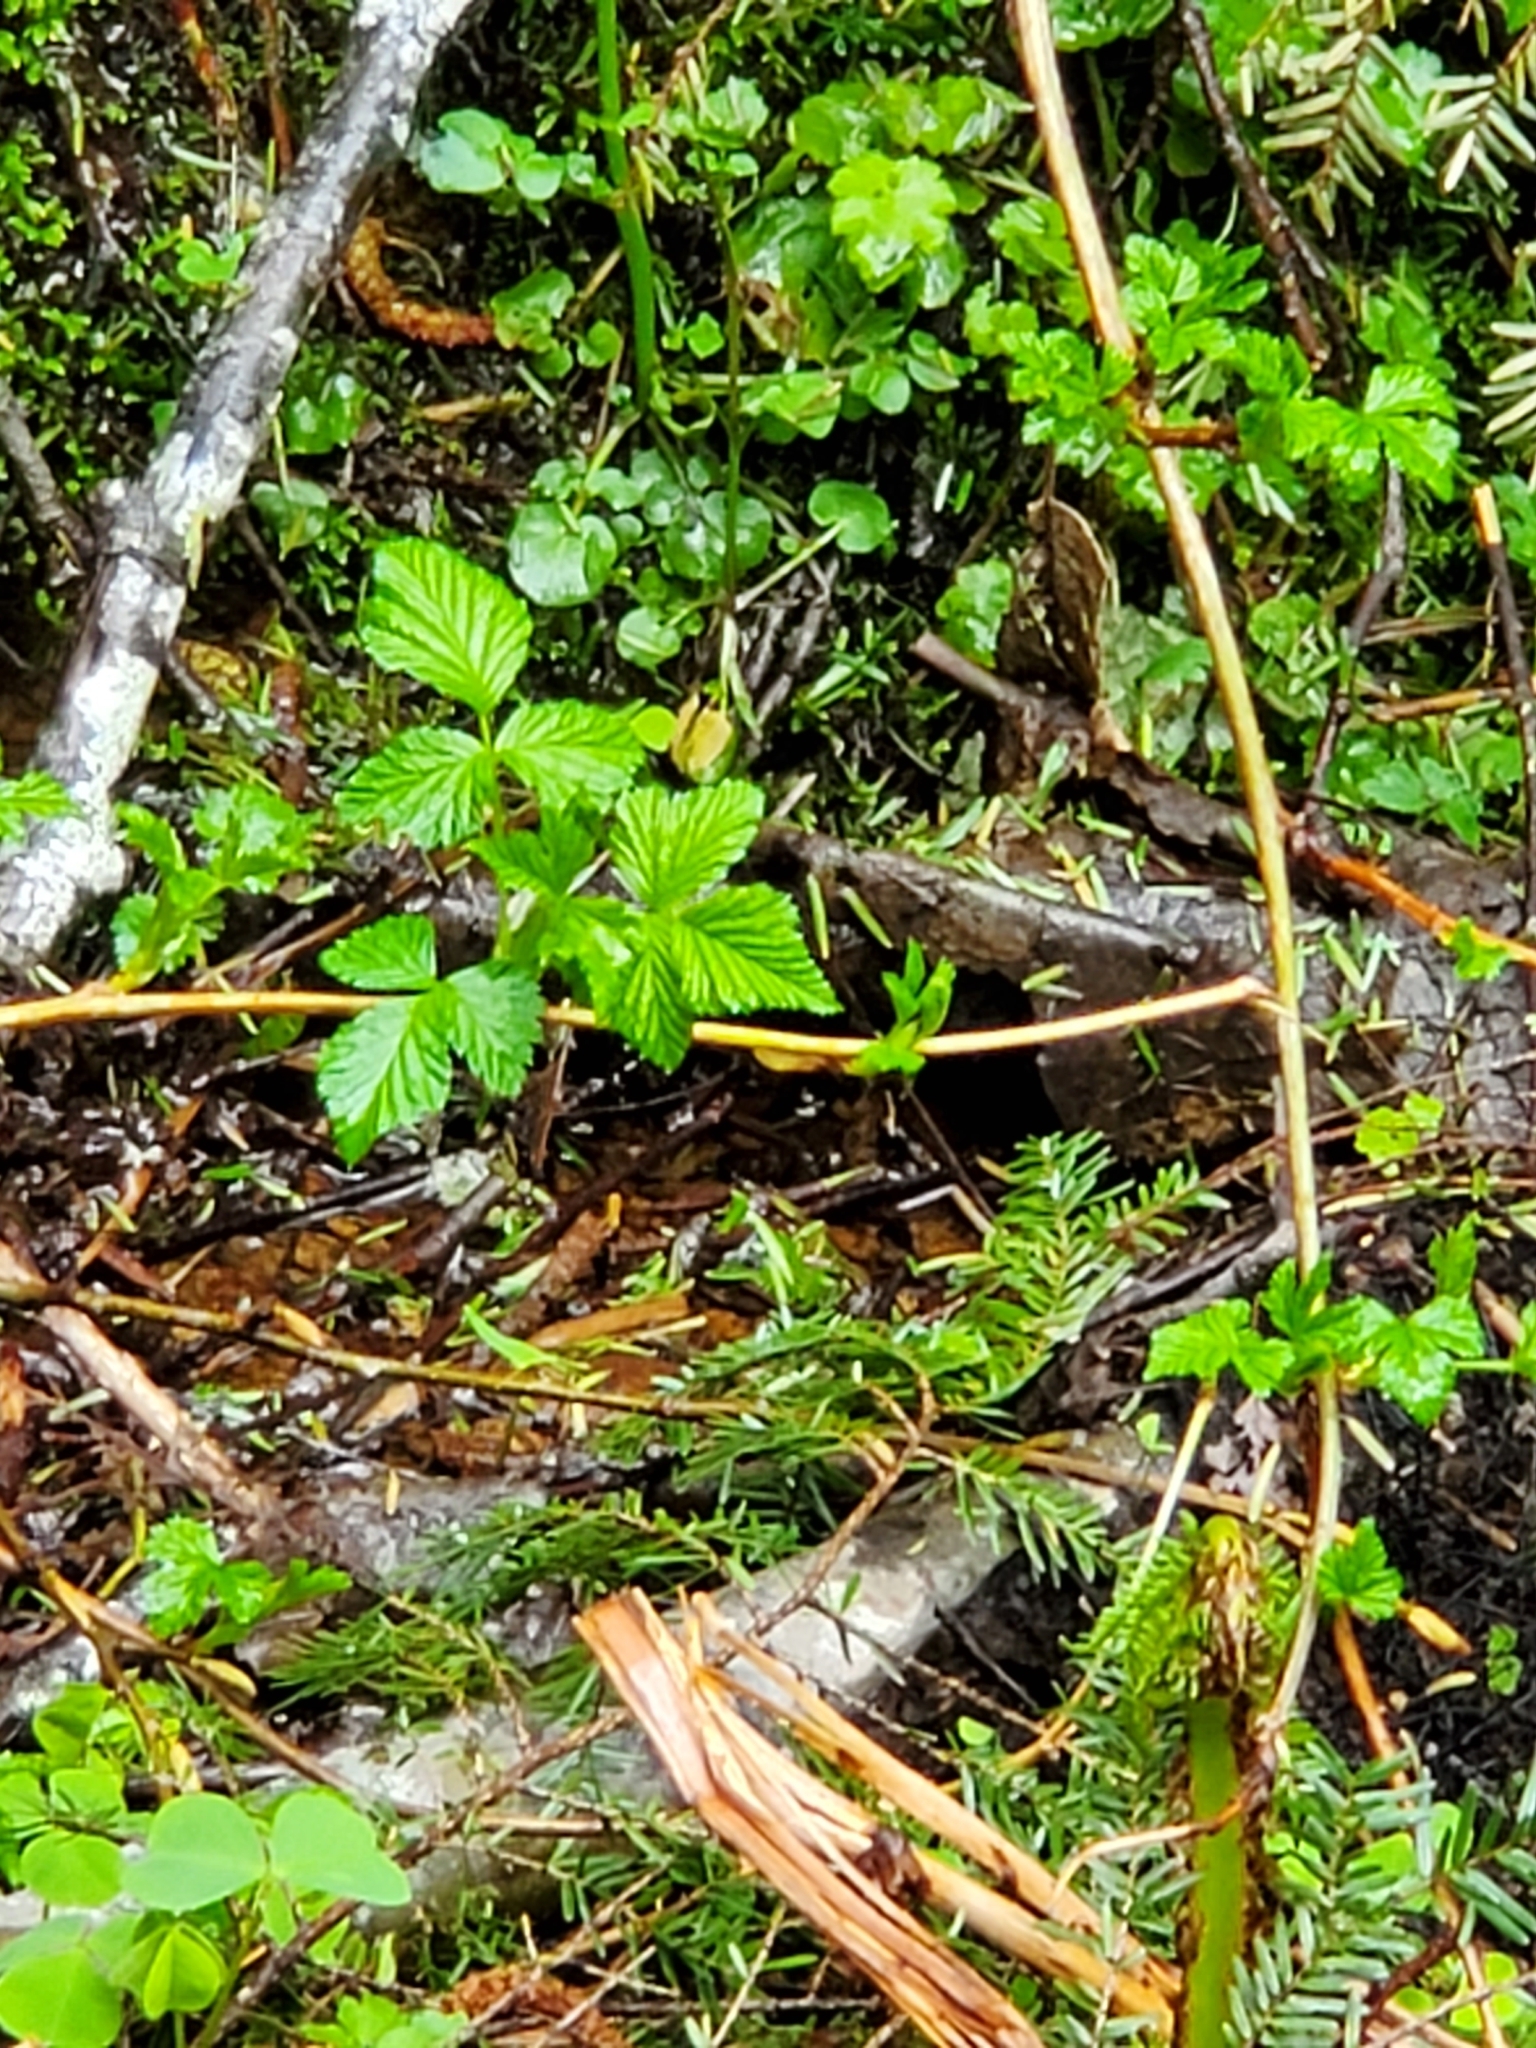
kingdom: Plantae
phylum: Tracheophyta
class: Magnoliopsida
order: Rosales
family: Rosaceae
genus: Rubus
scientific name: Rubus spectabilis
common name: Salmonberry
